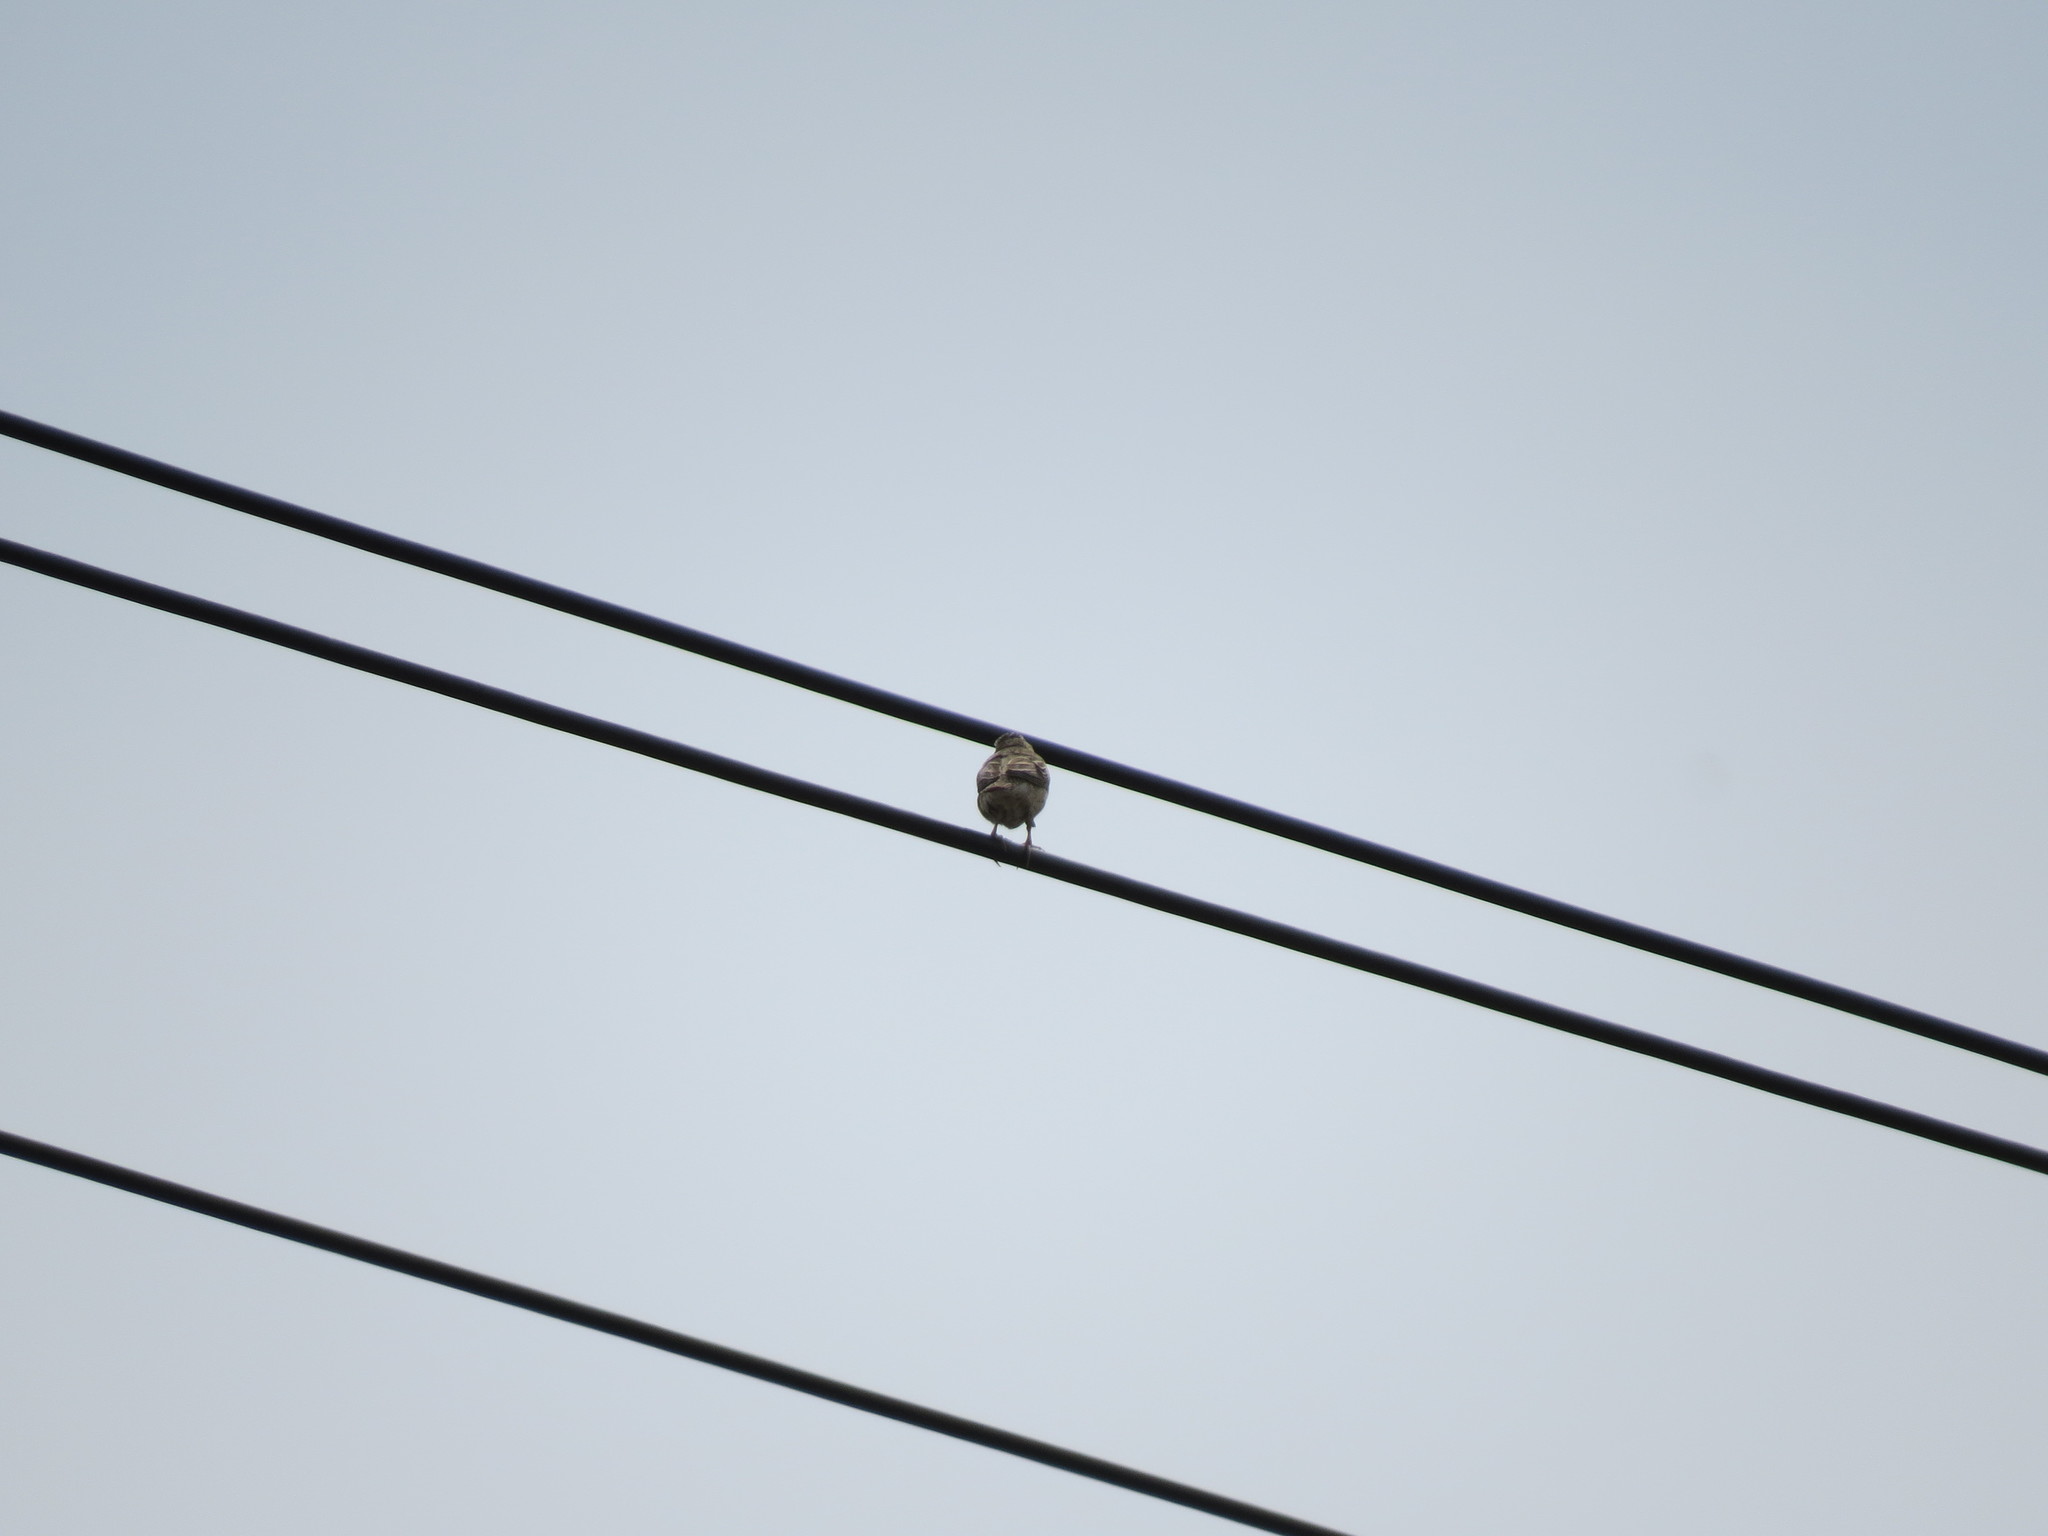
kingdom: Animalia
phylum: Chordata
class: Aves
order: Passeriformes
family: Motacillidae
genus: Anthus
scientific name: Anthus trivialis
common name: Tree pipit
